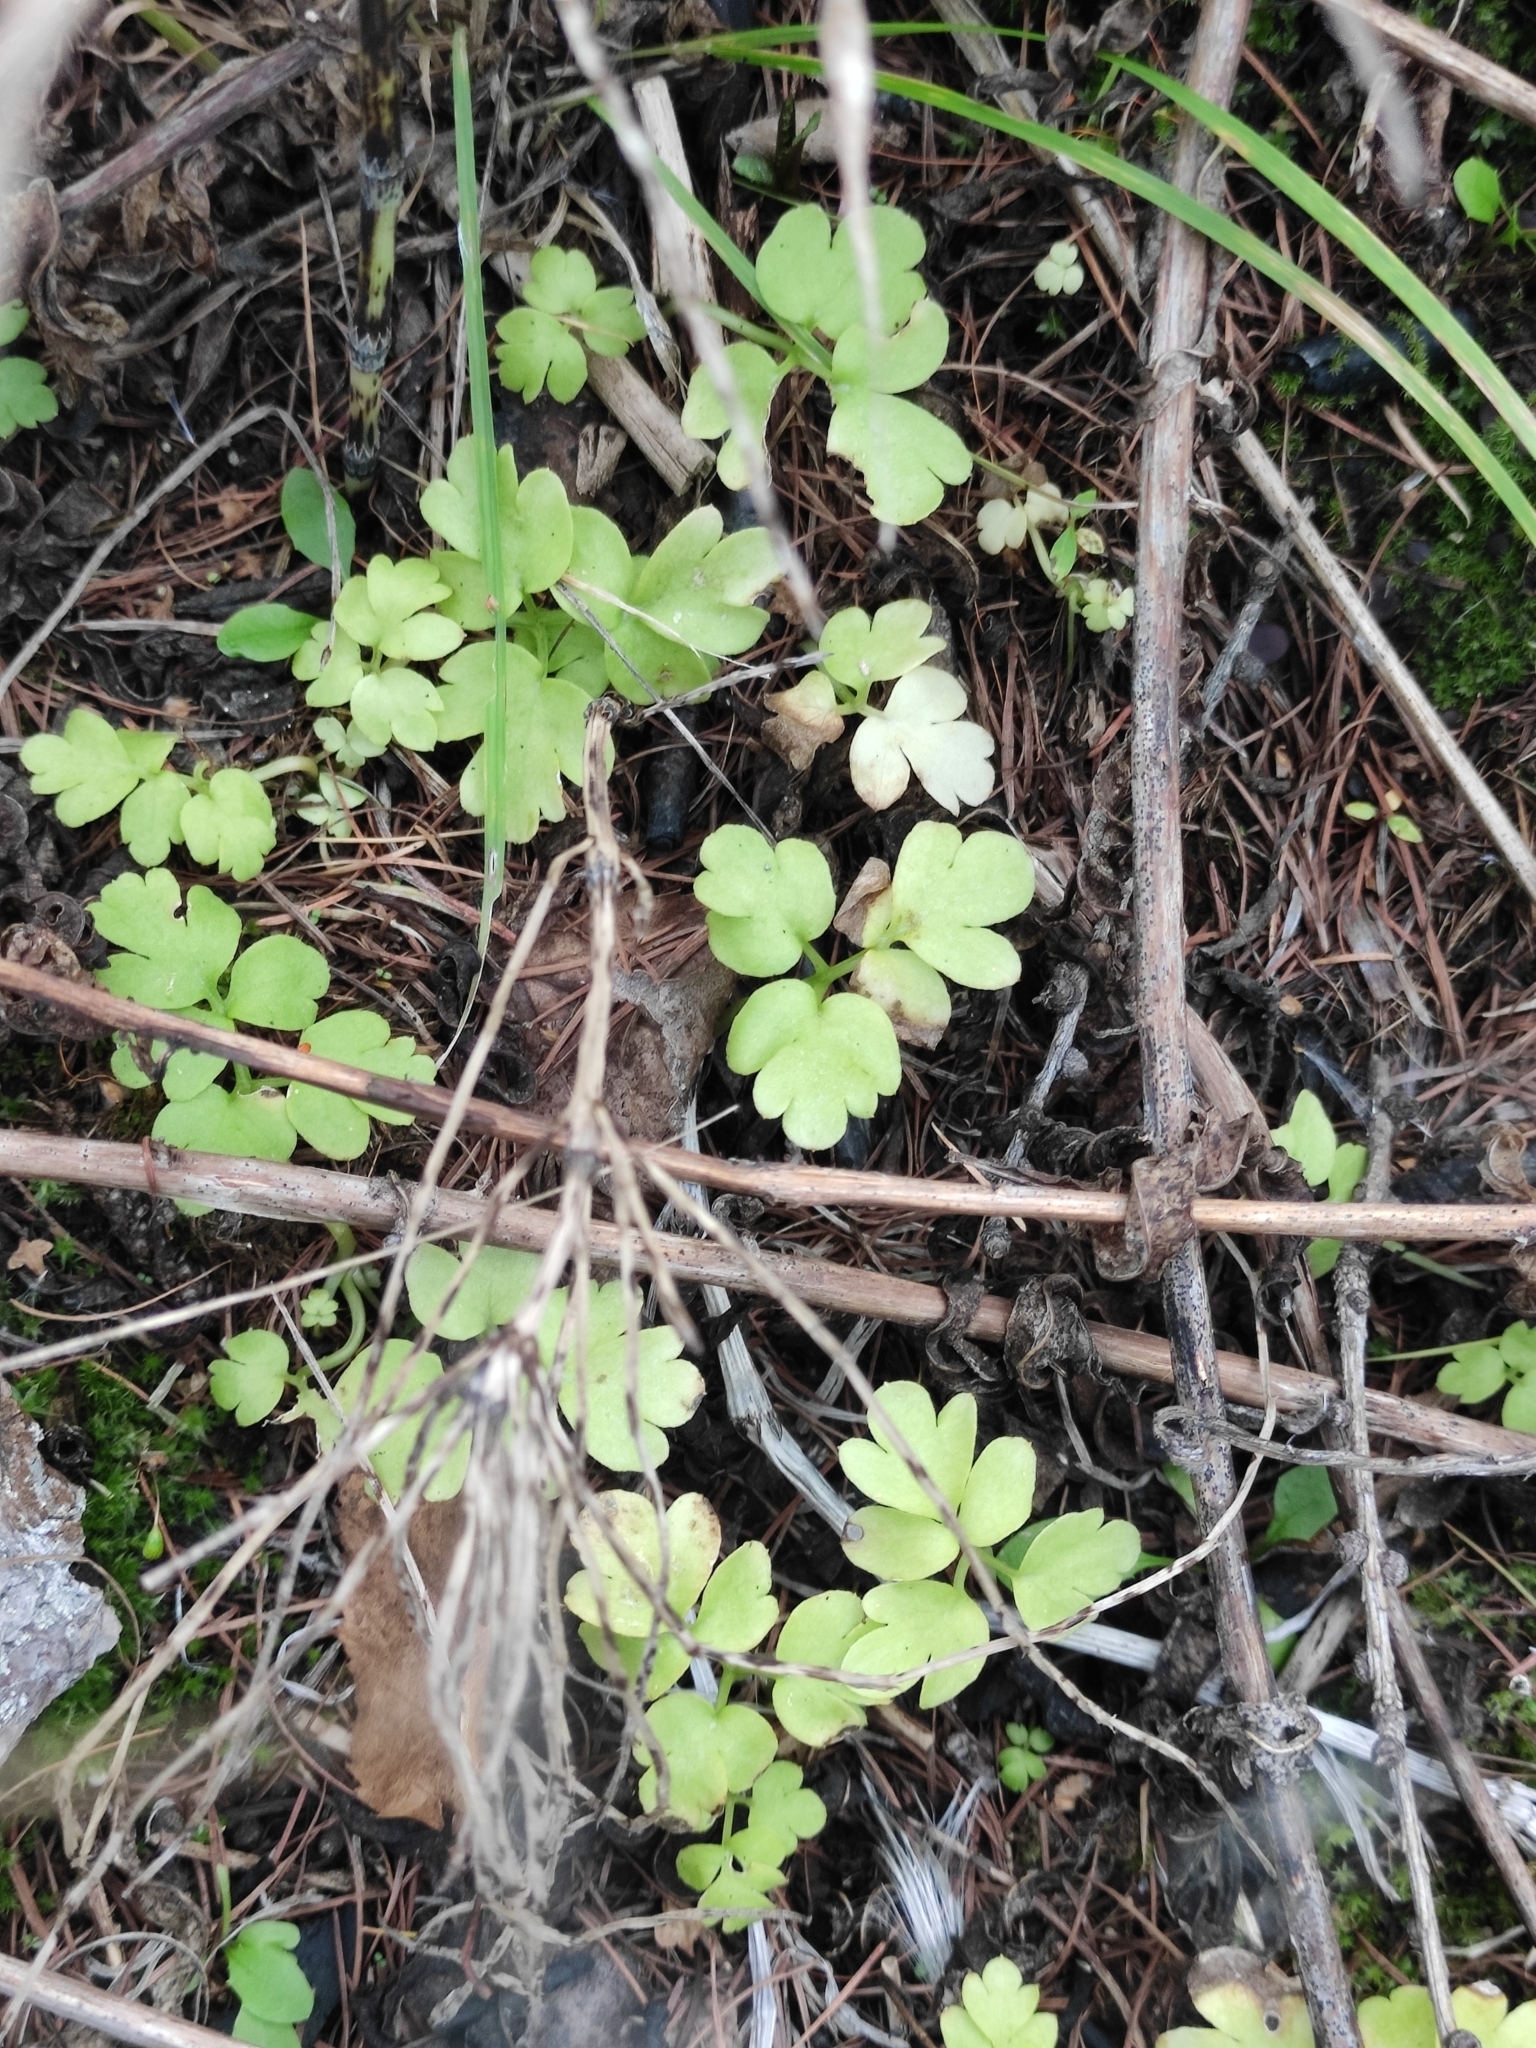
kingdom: Plantae
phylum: Tracheophyta
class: Magnoliopsida
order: Dipsacales
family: Viburnaceae
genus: Adoxa
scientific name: Adoxa moschatellina
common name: Moschatel
